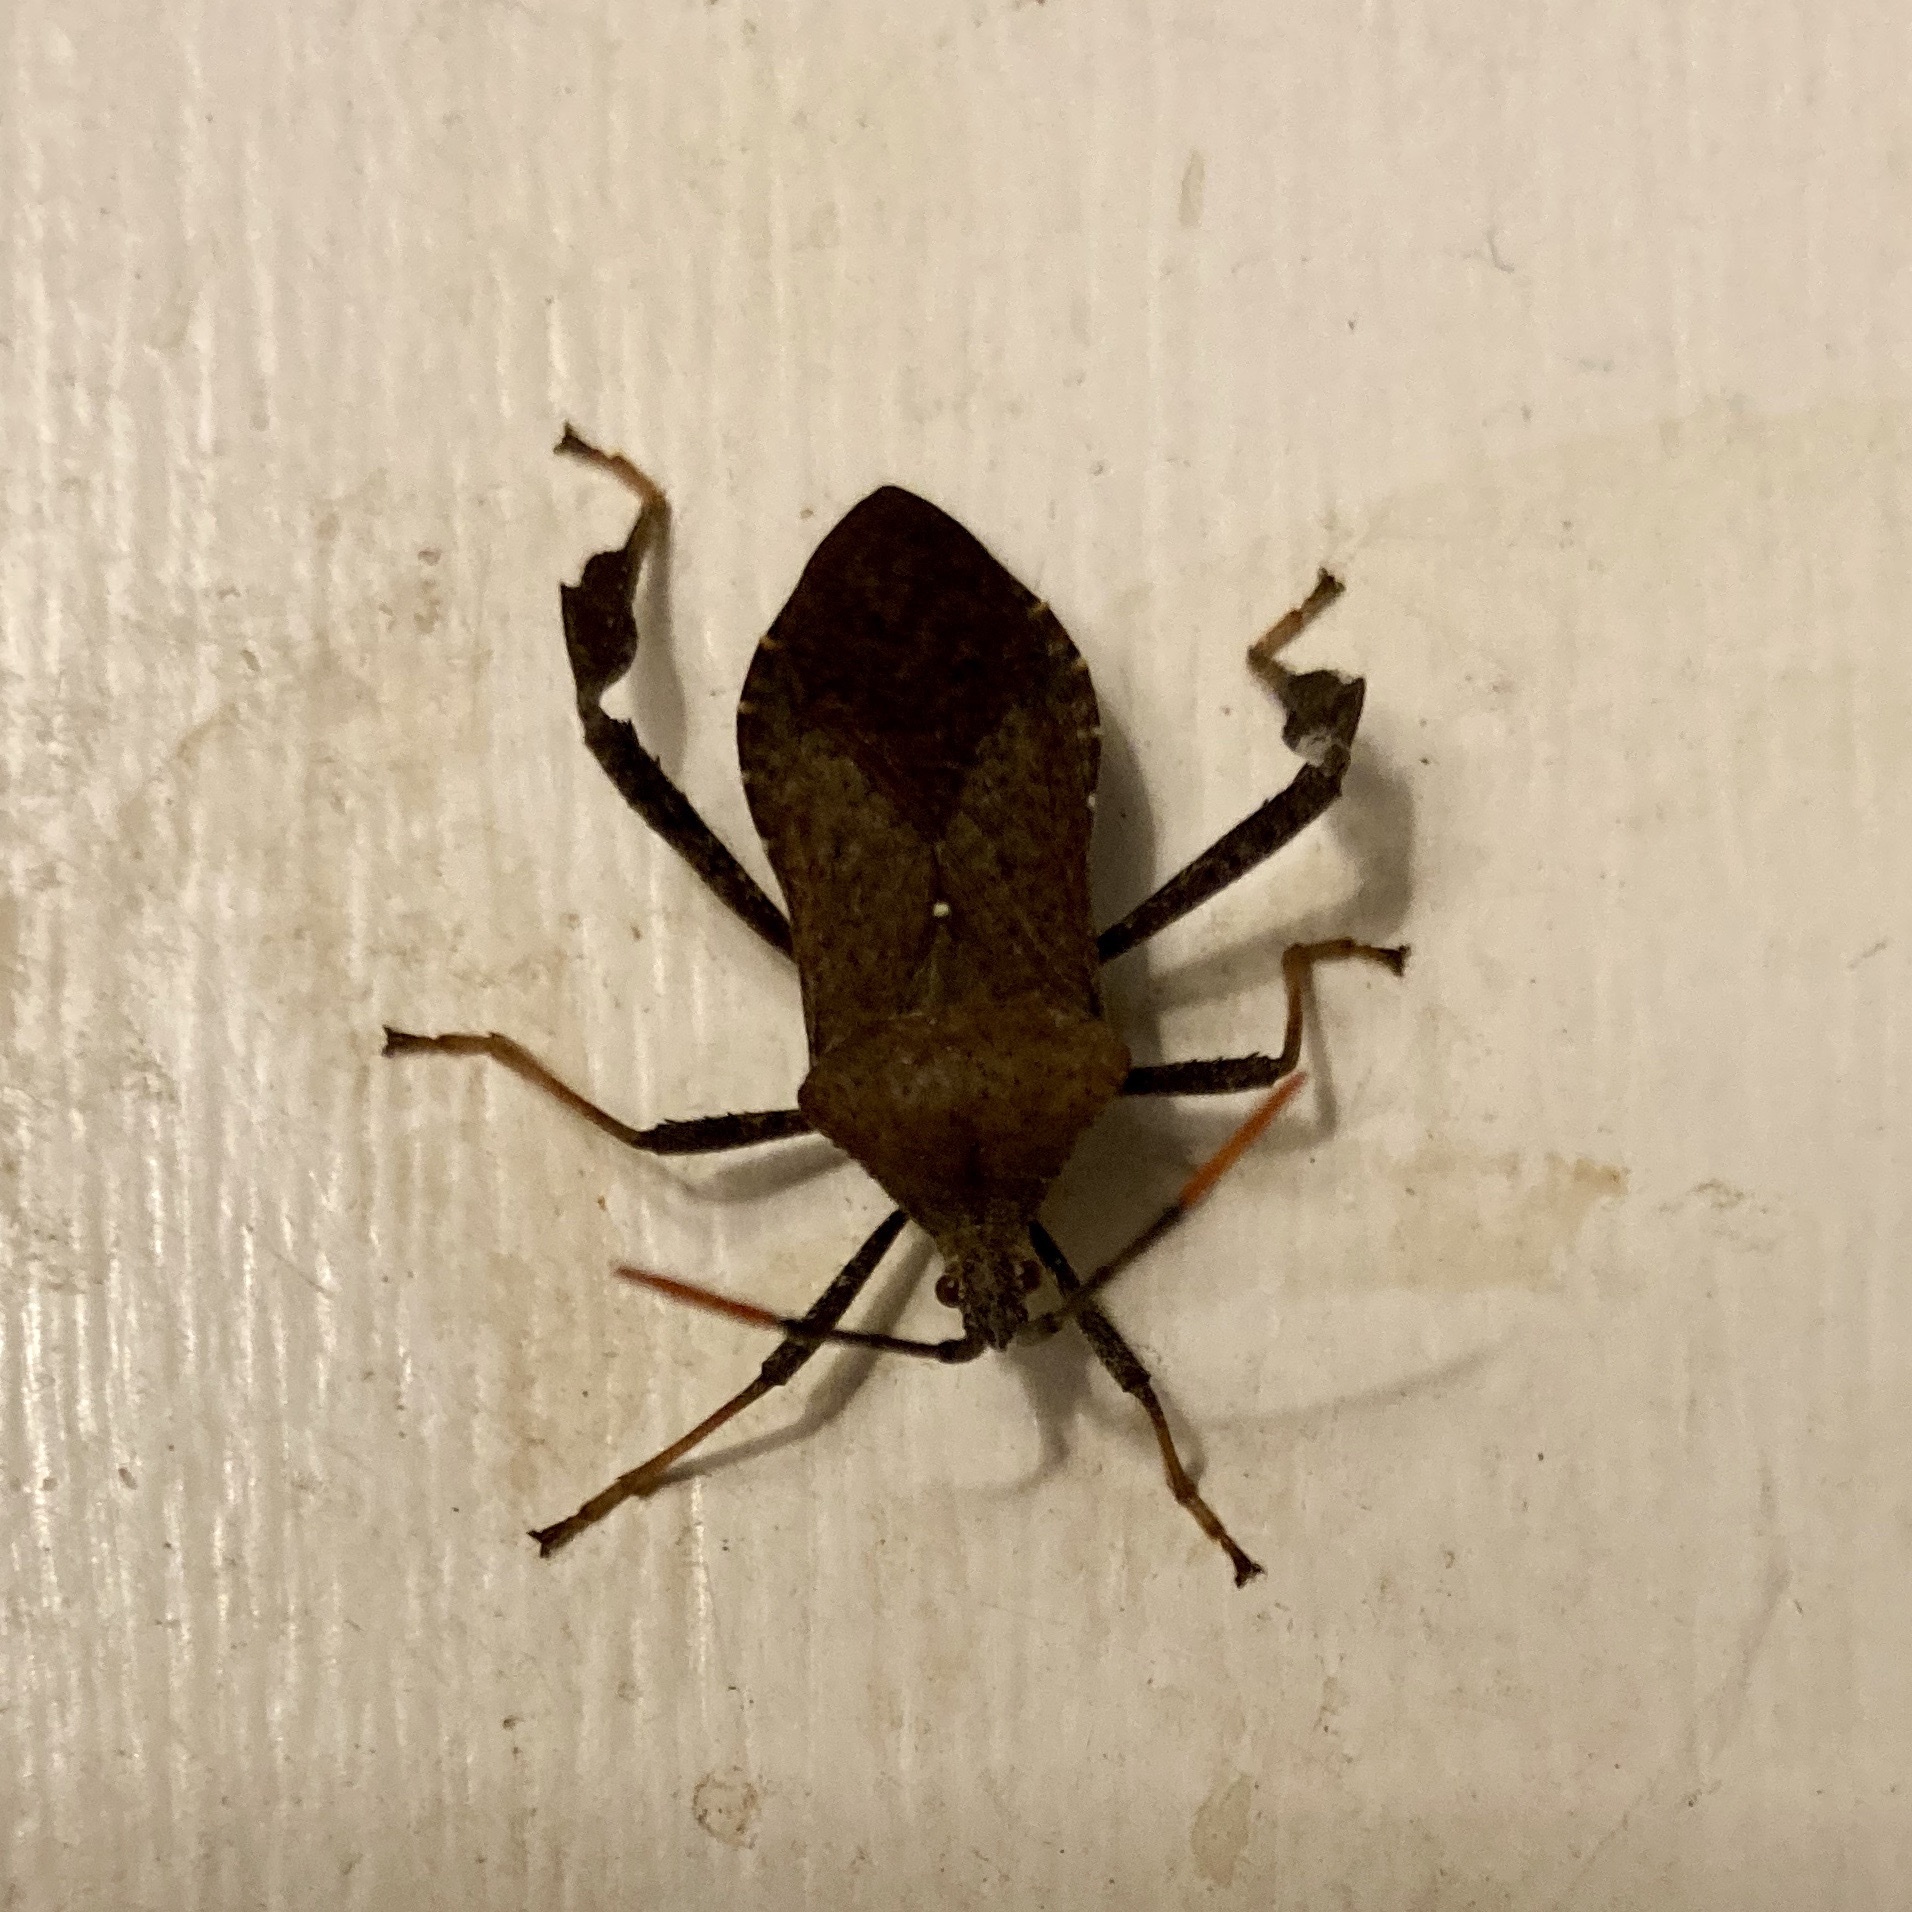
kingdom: Animalia
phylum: Arthropoda
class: Insecta
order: Hemiptera
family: Coreidae
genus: Acanthocephala
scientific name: Acanthocephala terminalis
